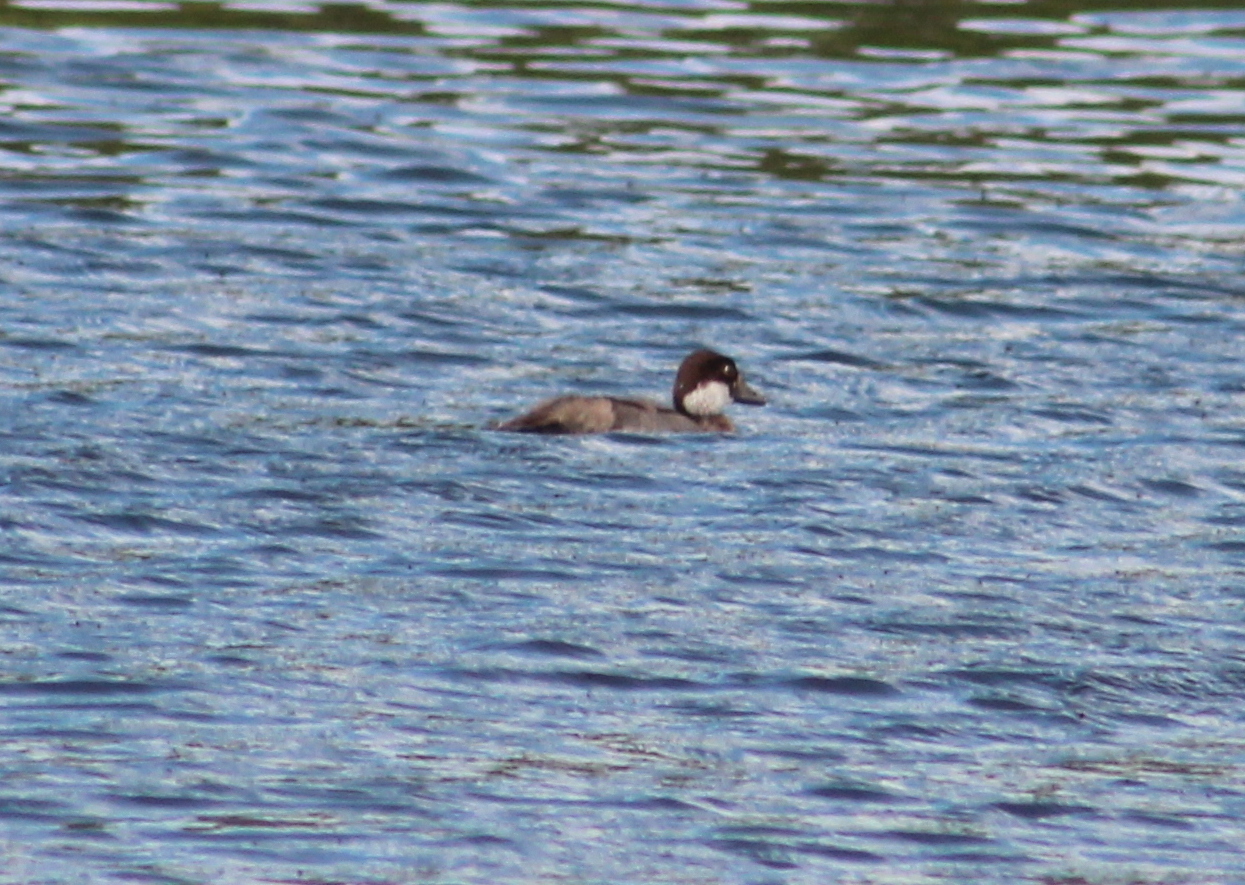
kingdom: Animalia
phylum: Chordata
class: Aves
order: Anseriformes
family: Anatidae
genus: Bucephala
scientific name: Bucephala clangula
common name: Common goldeneye
